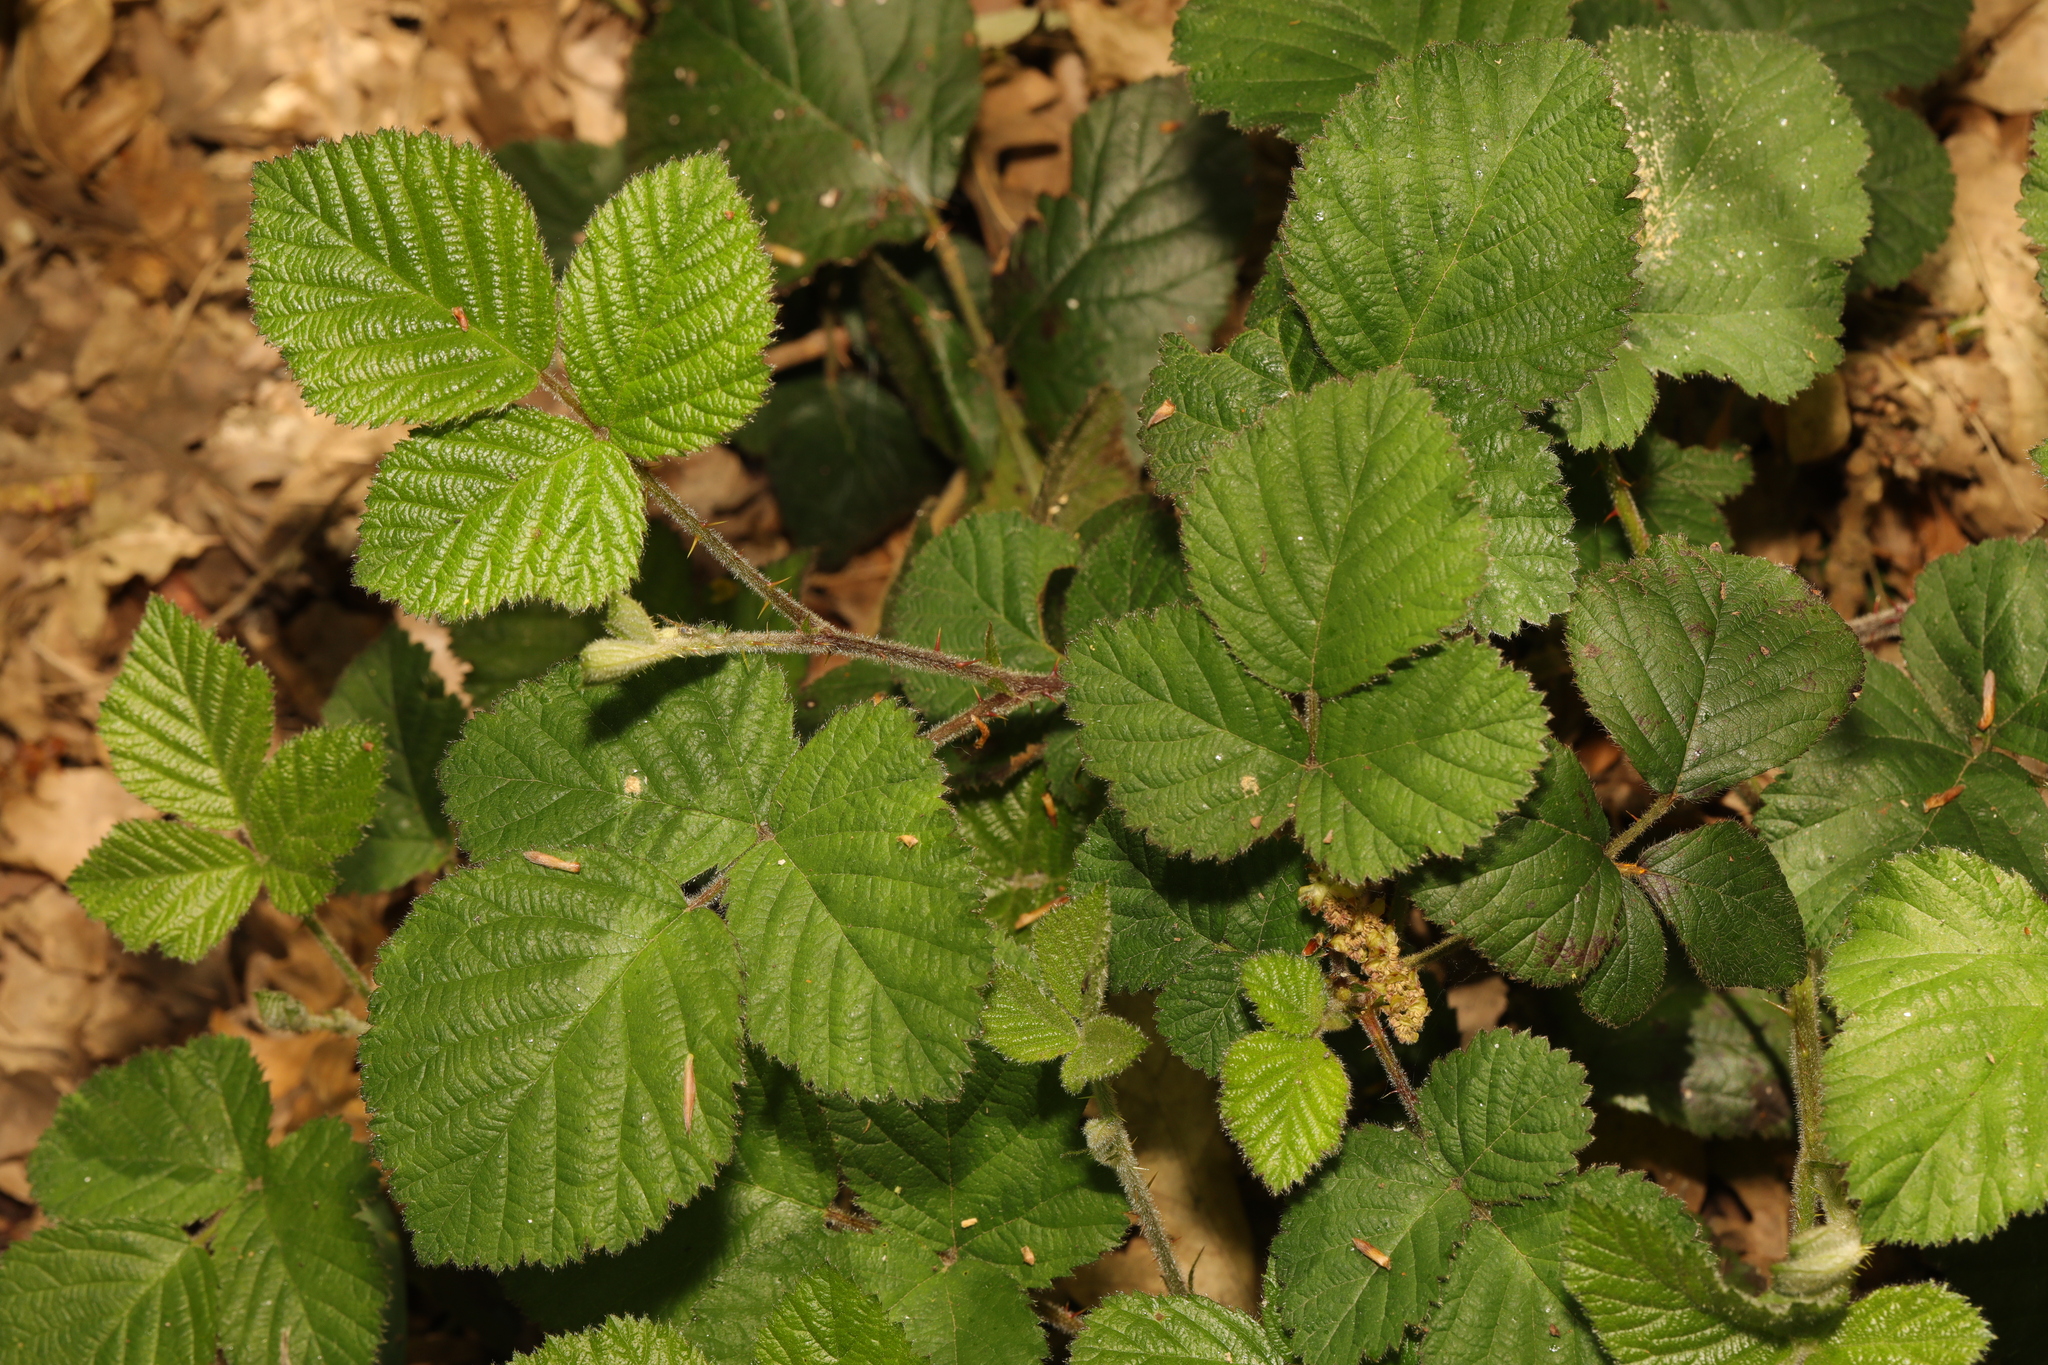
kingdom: Plantae
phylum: Tracheophyta
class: Magnoliopsida
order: Rosales
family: Rosaceae
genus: Rubus
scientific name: Rubus vestitus
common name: European blackberry
